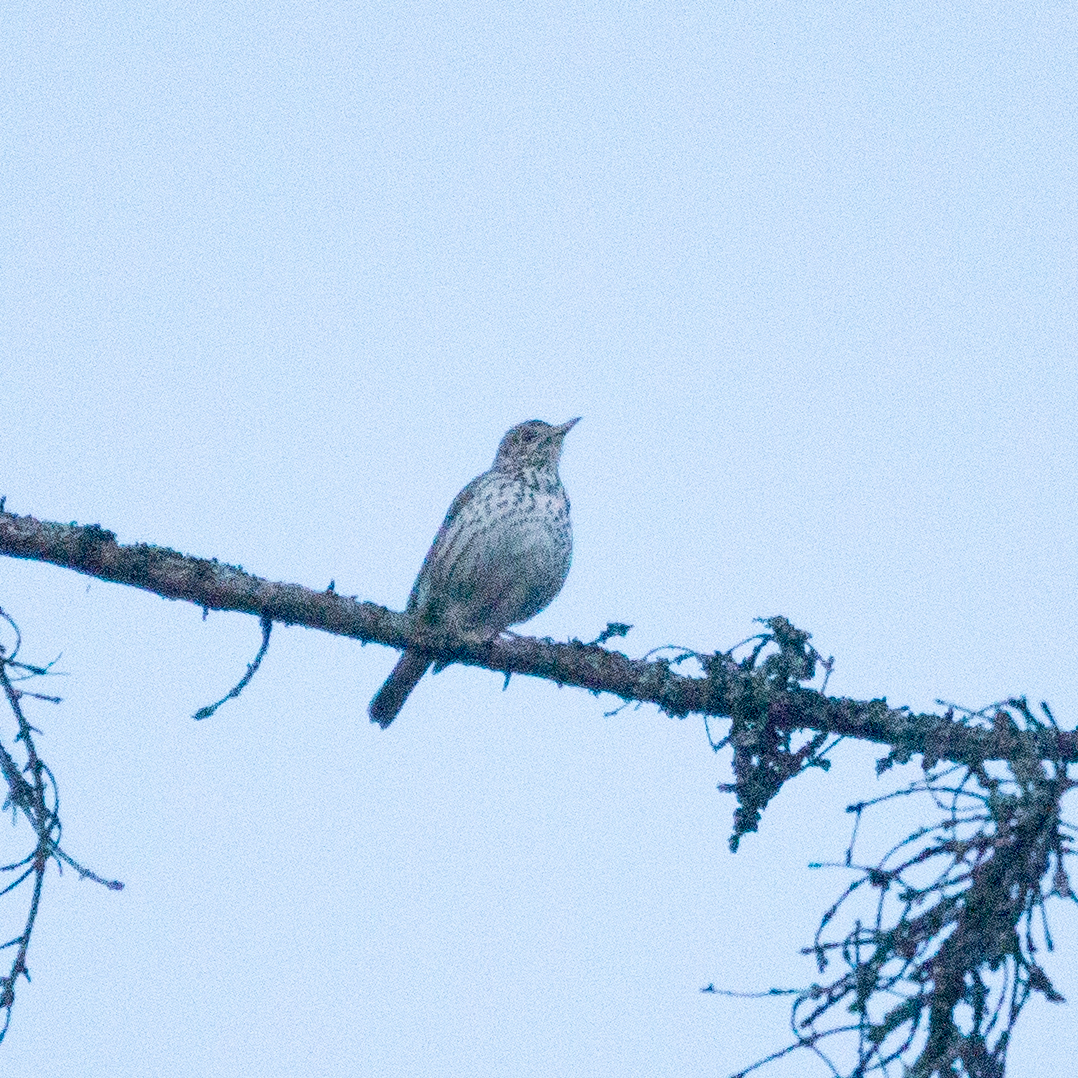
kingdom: Animalia
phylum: Chordata
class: Aves
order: Passeriformes
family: Turdidae
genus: Turdus
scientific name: Turdus philomelos
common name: Song thrush
